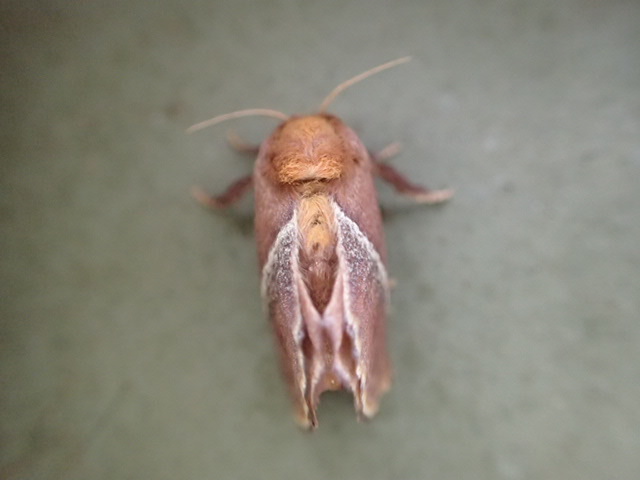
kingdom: Animalia
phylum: Arthropoda
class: Insecta
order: Lepidoptera
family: Limacodidae
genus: Eloasa
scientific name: Eloasa bombycoides
